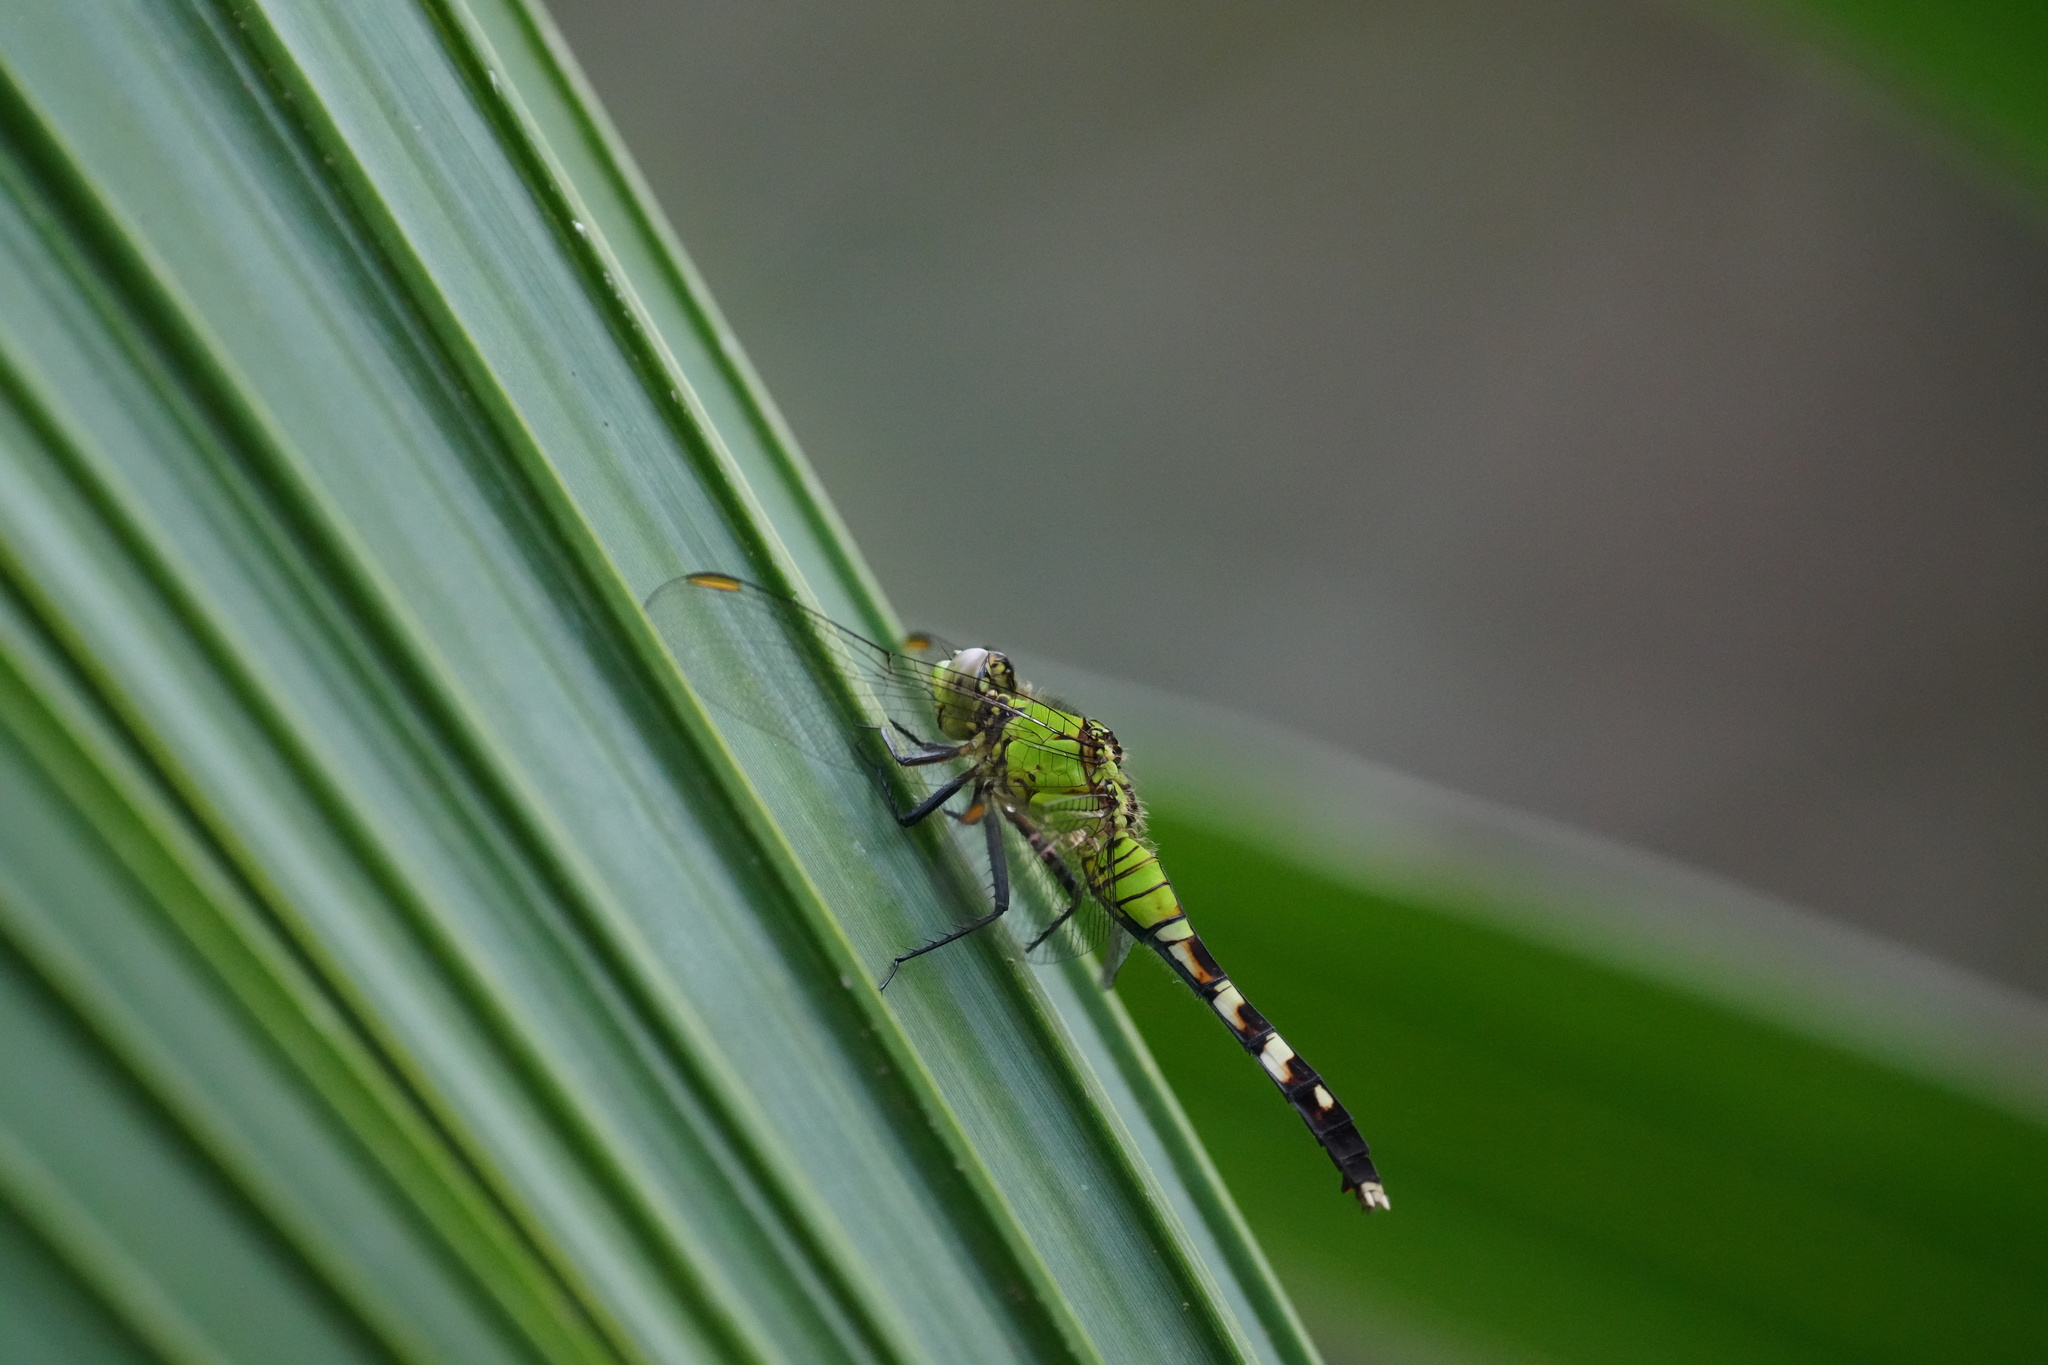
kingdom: Animalia
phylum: Arthropoda
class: Insecta
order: Odonata
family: Libellulidae
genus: Erythemis
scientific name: Erythemis simplicicollis
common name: Eastern pondhawk
